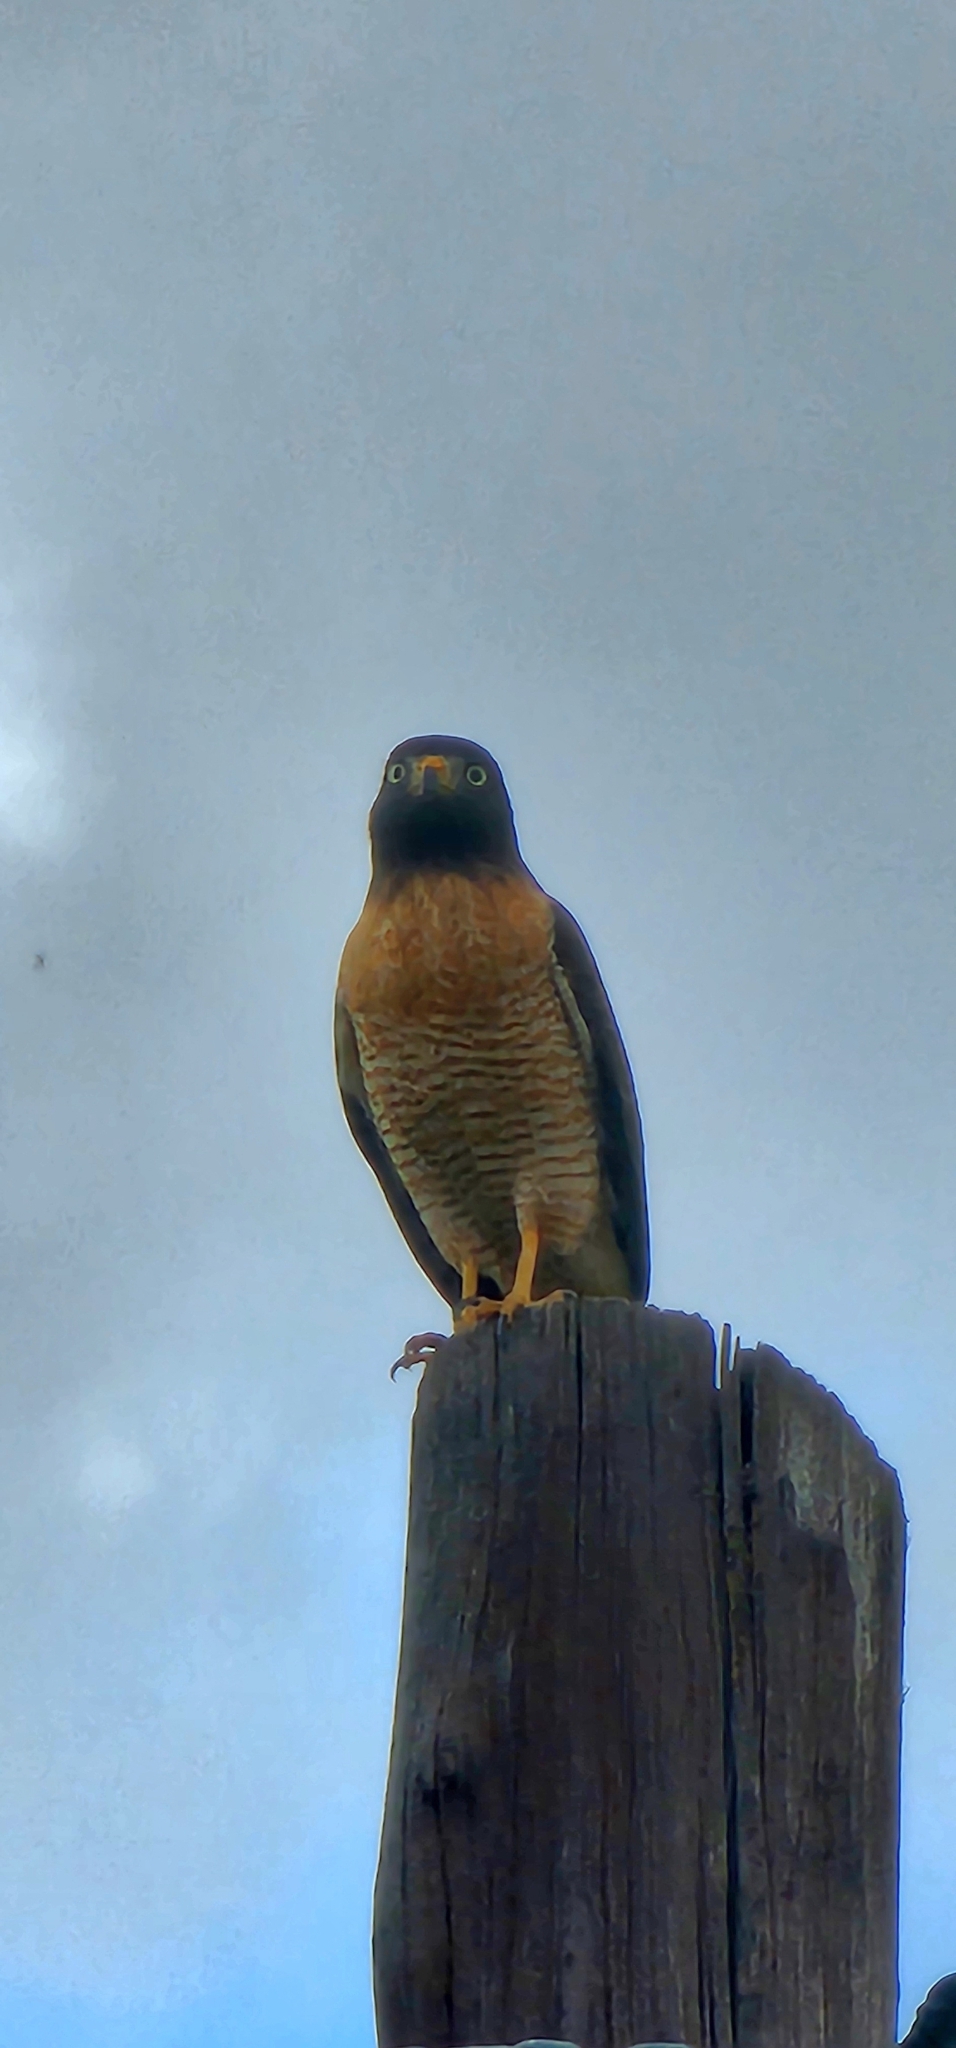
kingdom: Animalia
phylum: Chordata
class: Aves
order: Accipitriformes
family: Accipitridae
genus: Rupornis
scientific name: Rupornis magnirostris
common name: Roadside hawk
